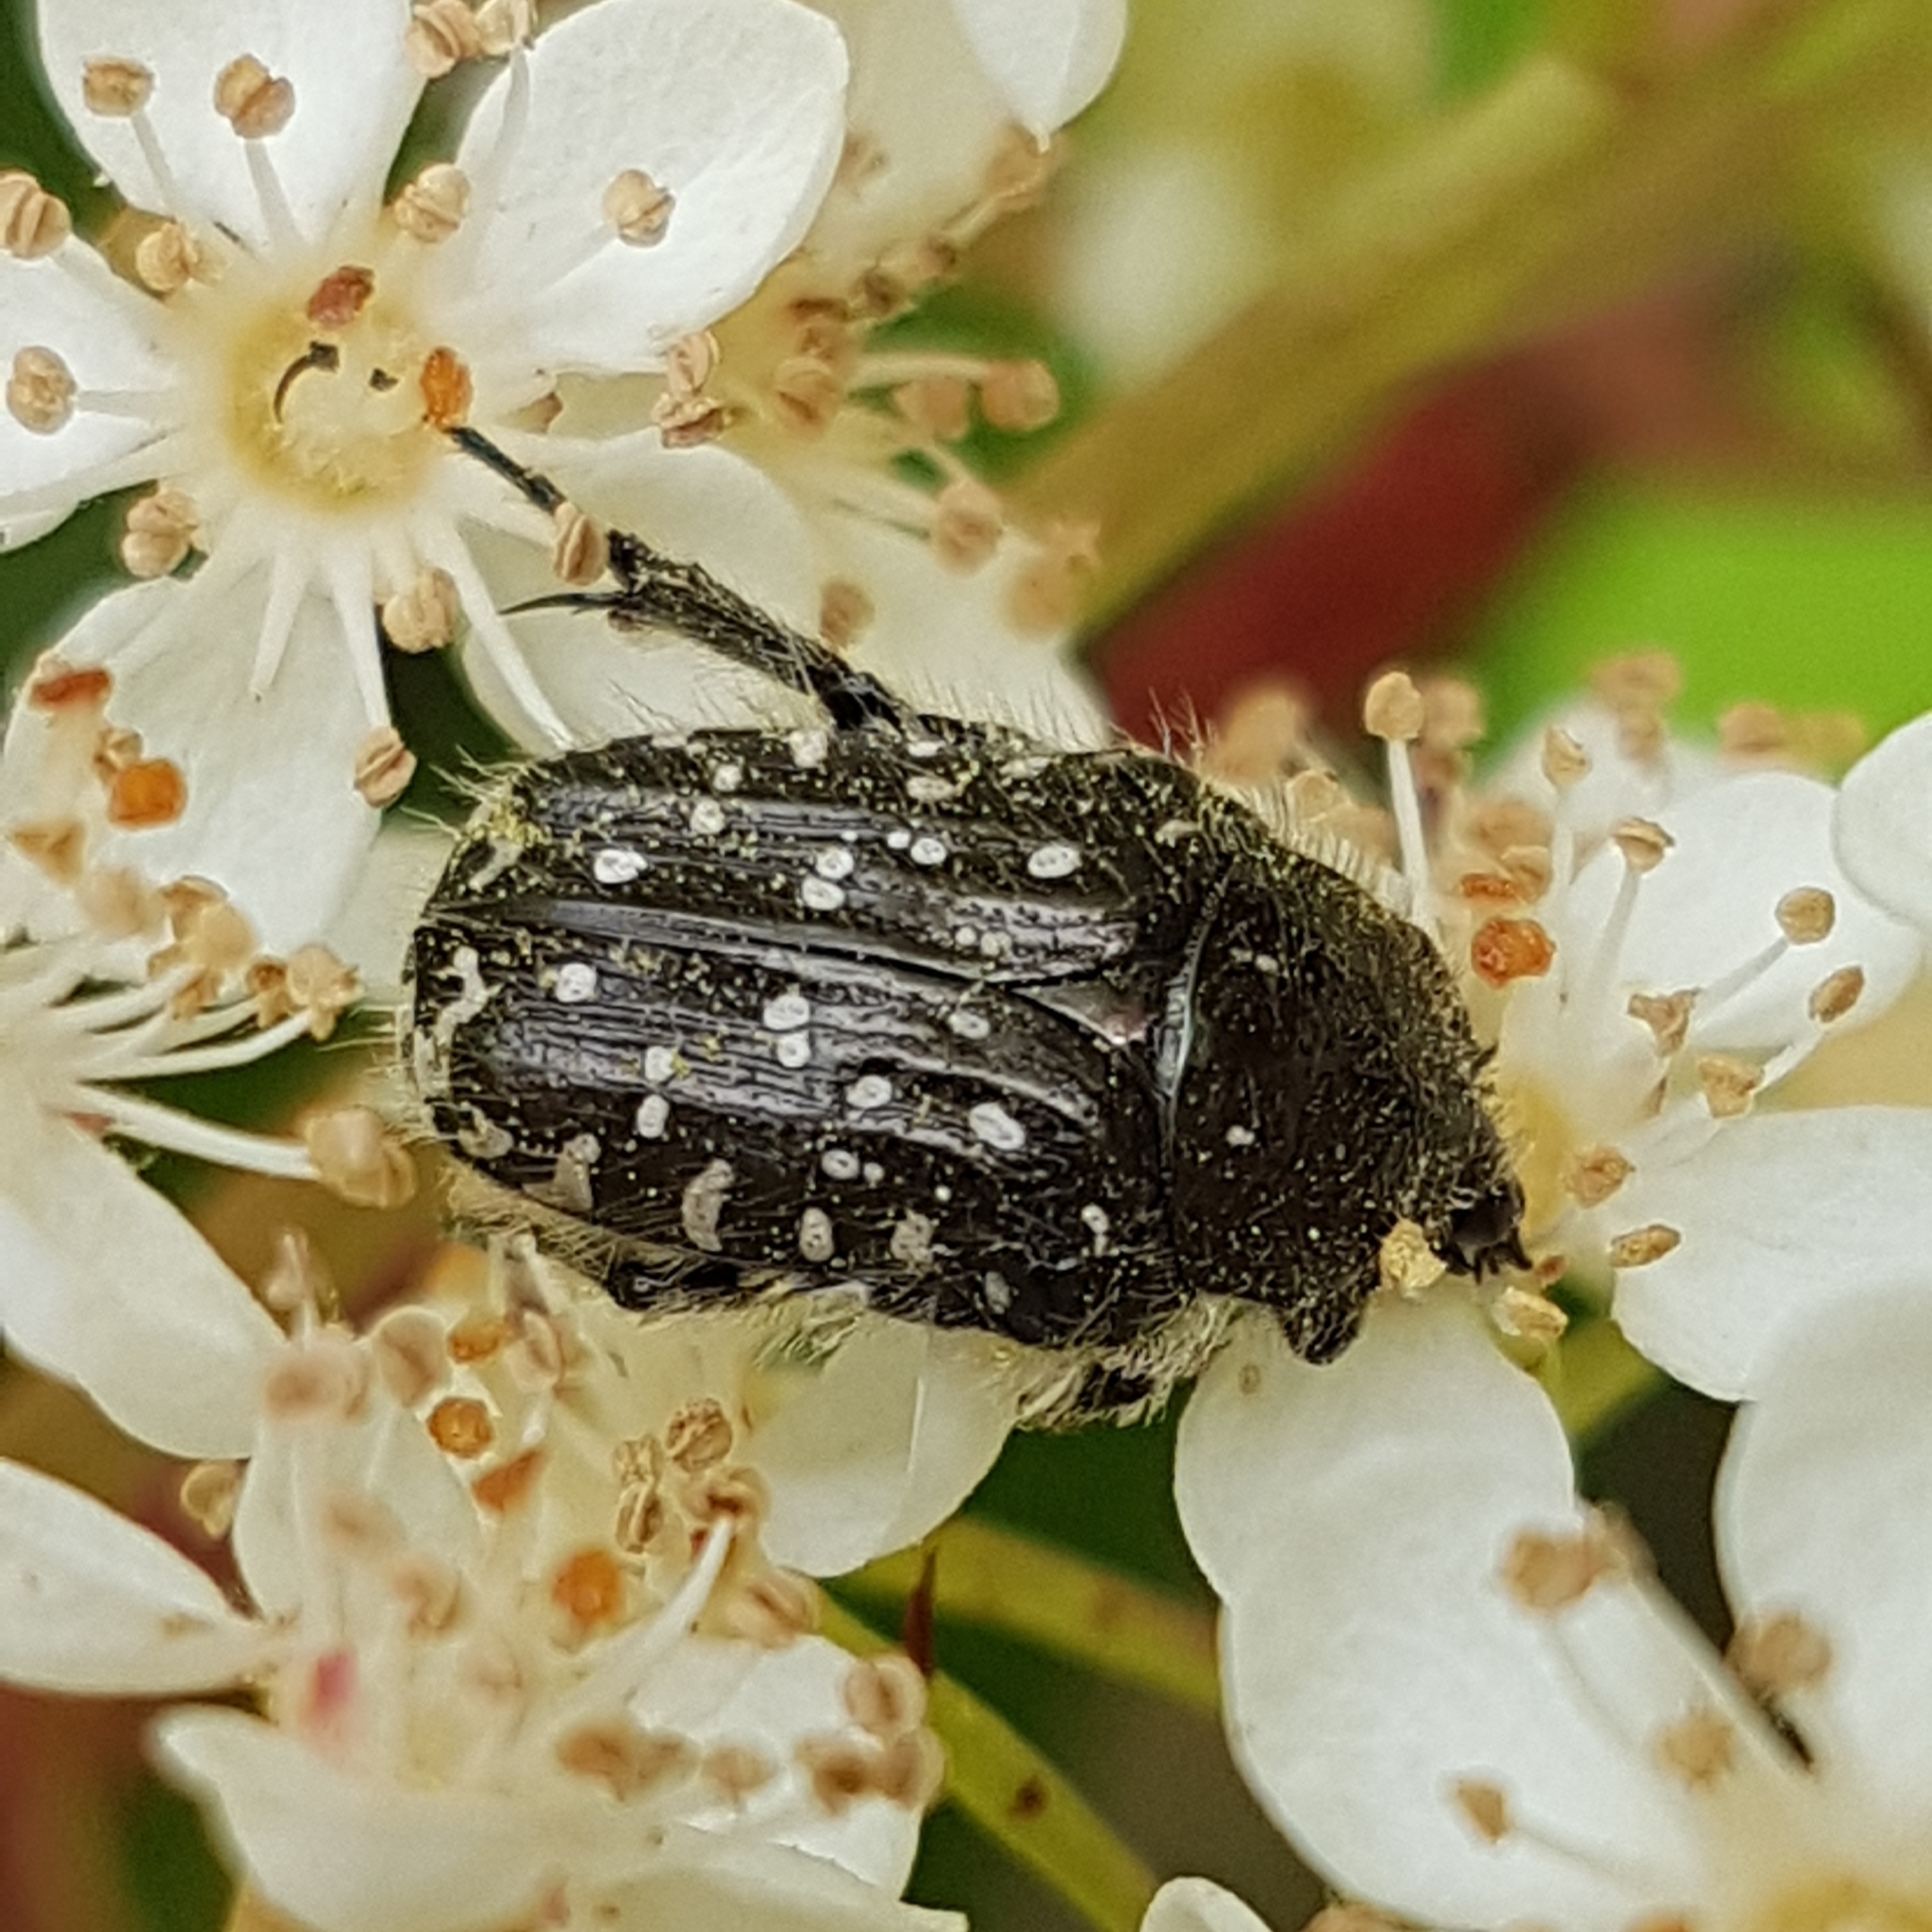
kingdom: Animalia
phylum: Arthropoda
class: Insecta
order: Coleoptera
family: Scarabaeidae
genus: Oxythyrea
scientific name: Oxythyrea funesta
